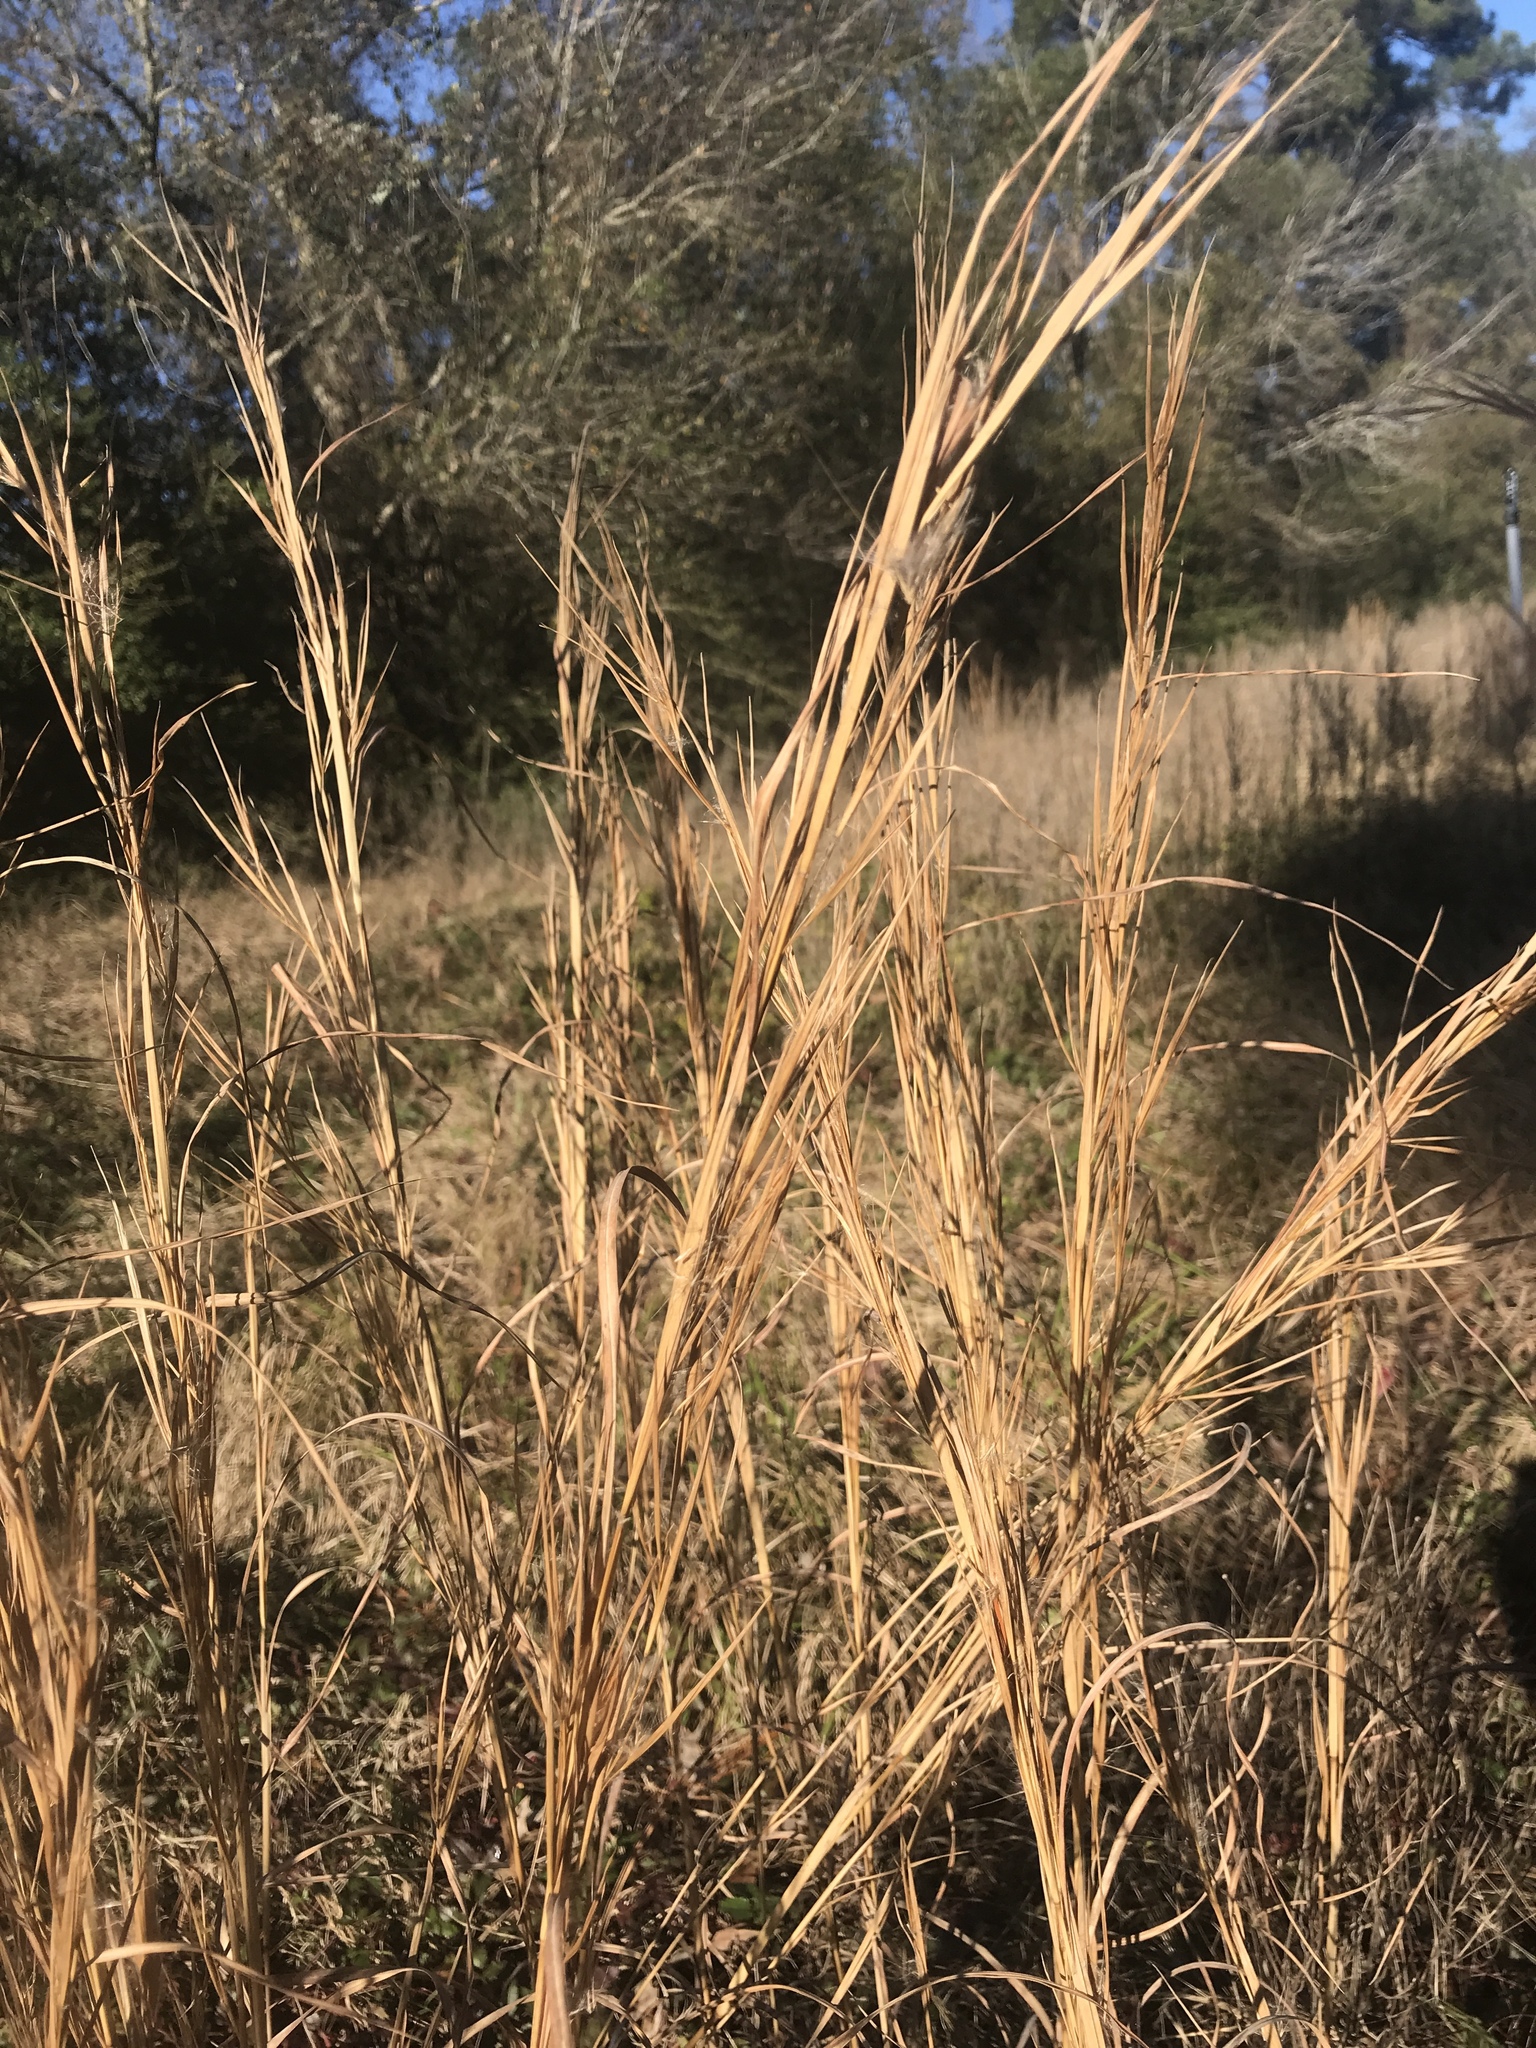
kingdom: Plantae
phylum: Tracheophyta
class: Liliopsida
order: Poales
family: Poaceae
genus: Andropogon
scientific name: Andropogon virginicus
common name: Broomsedge bluestem
